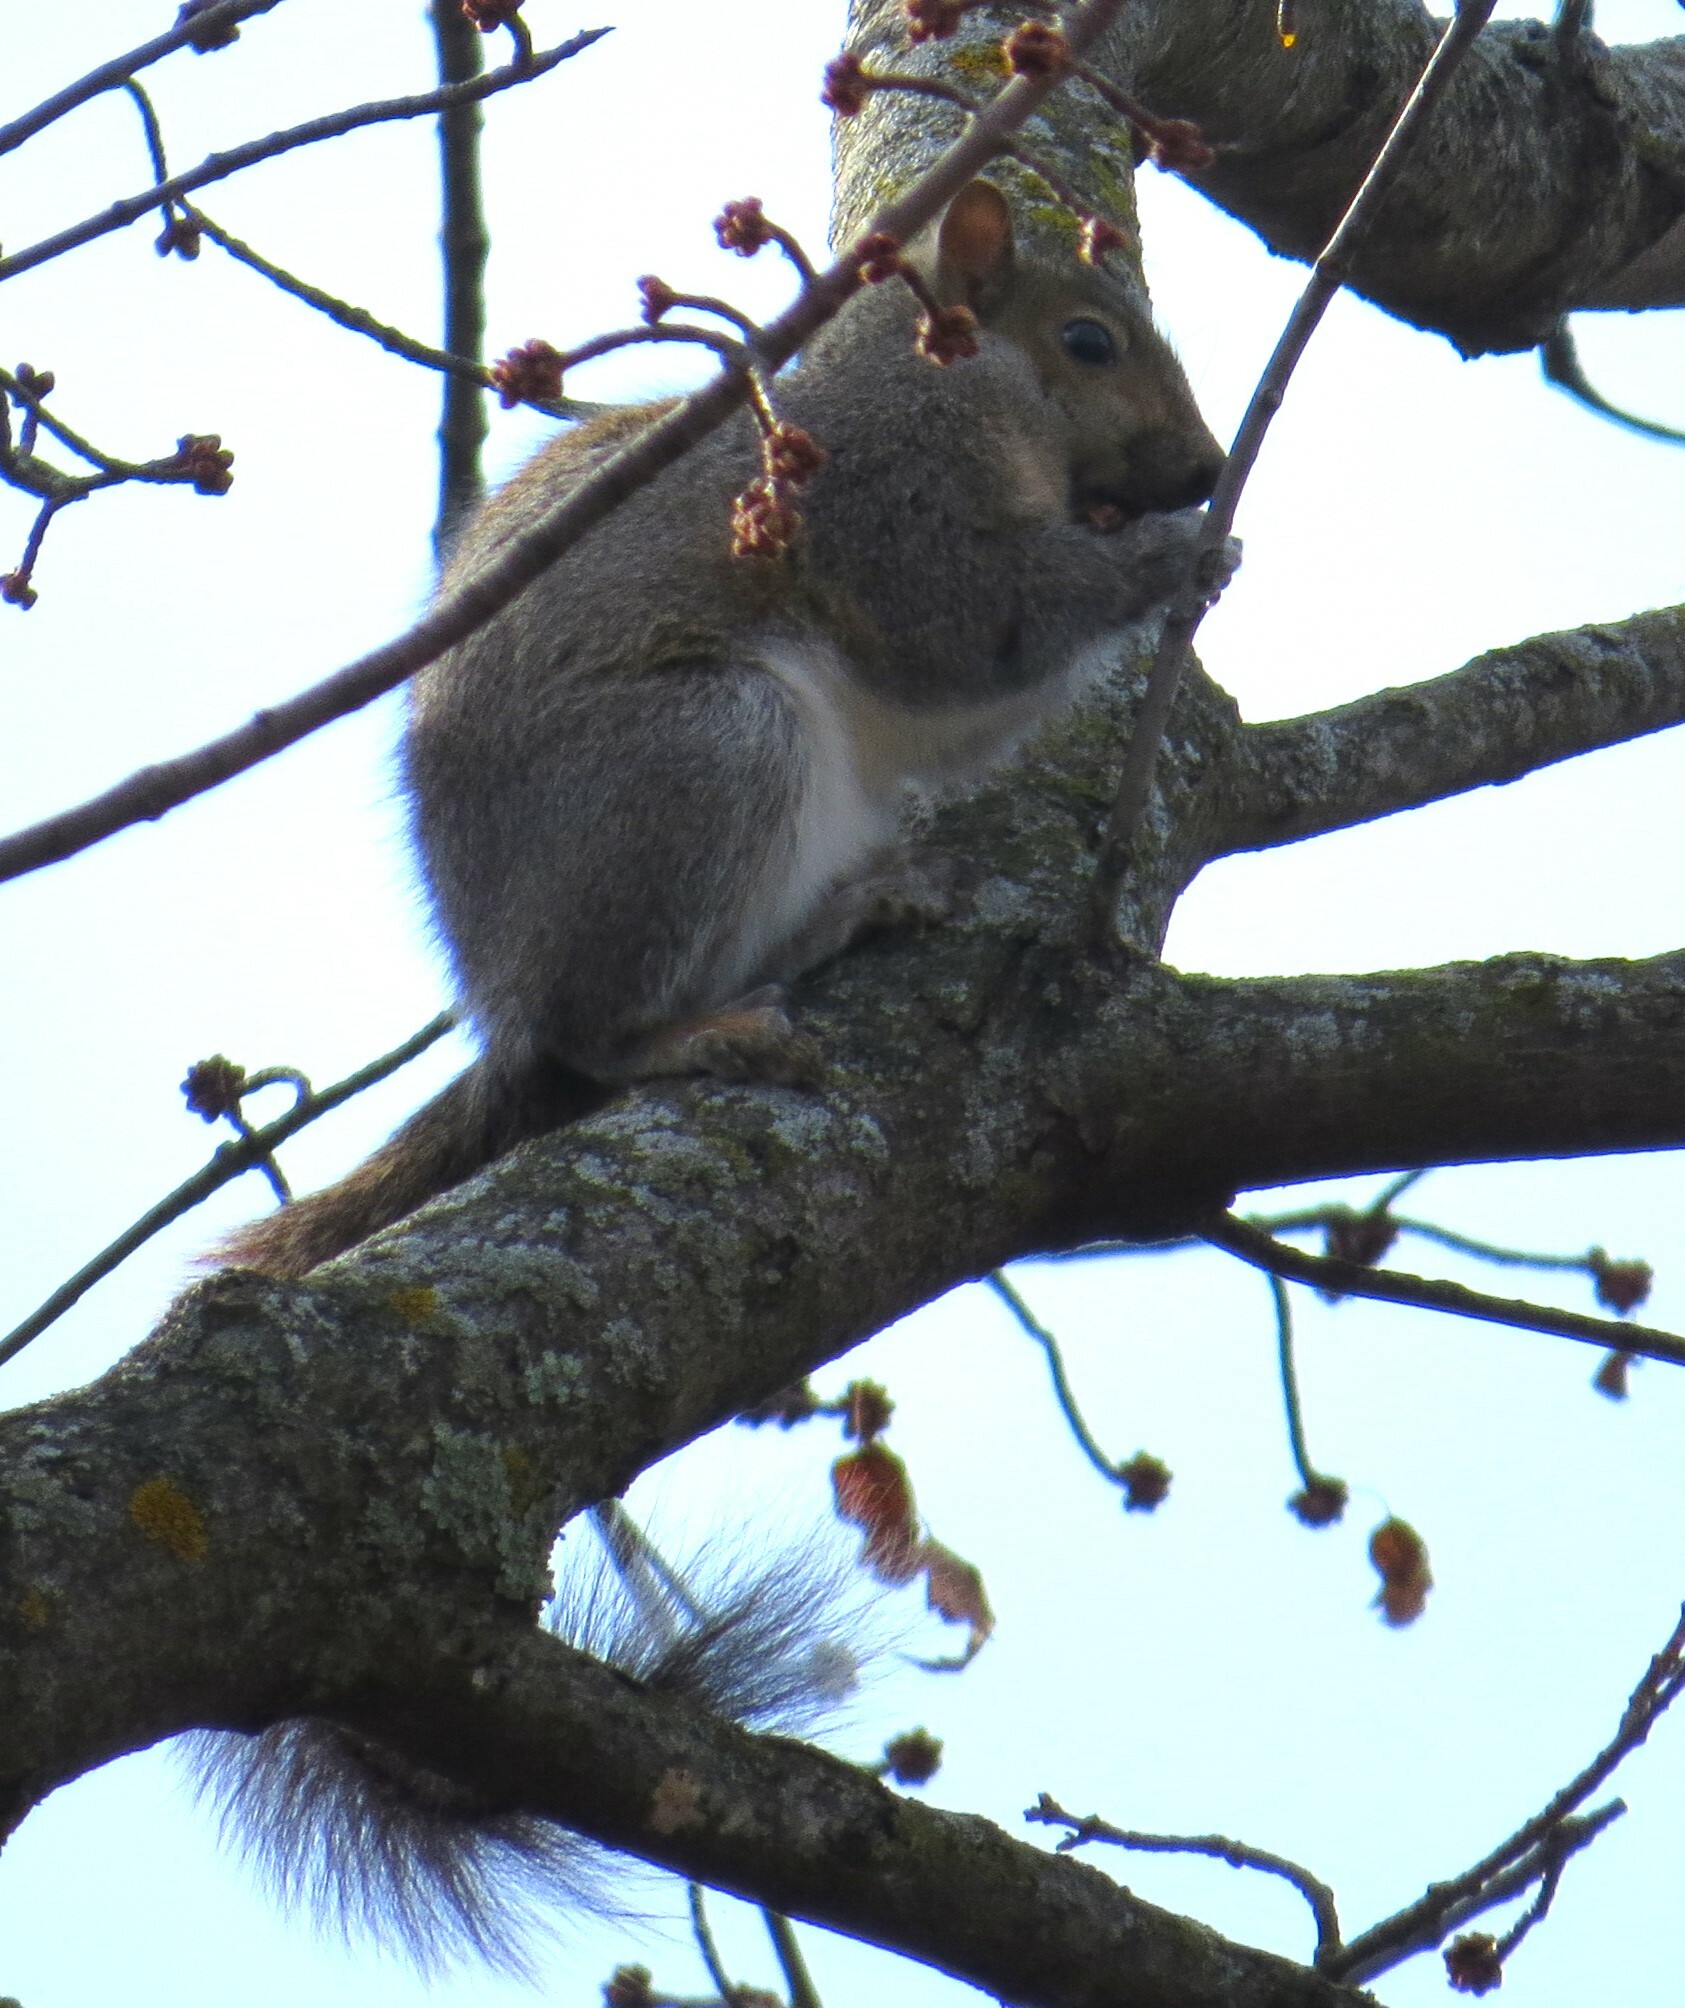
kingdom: Animalia
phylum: Chordata
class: Mammalia
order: Rodentia
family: Sciuridae
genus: Sciurus
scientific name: Sciurus carolinensis
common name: Eastern gray squirrel
